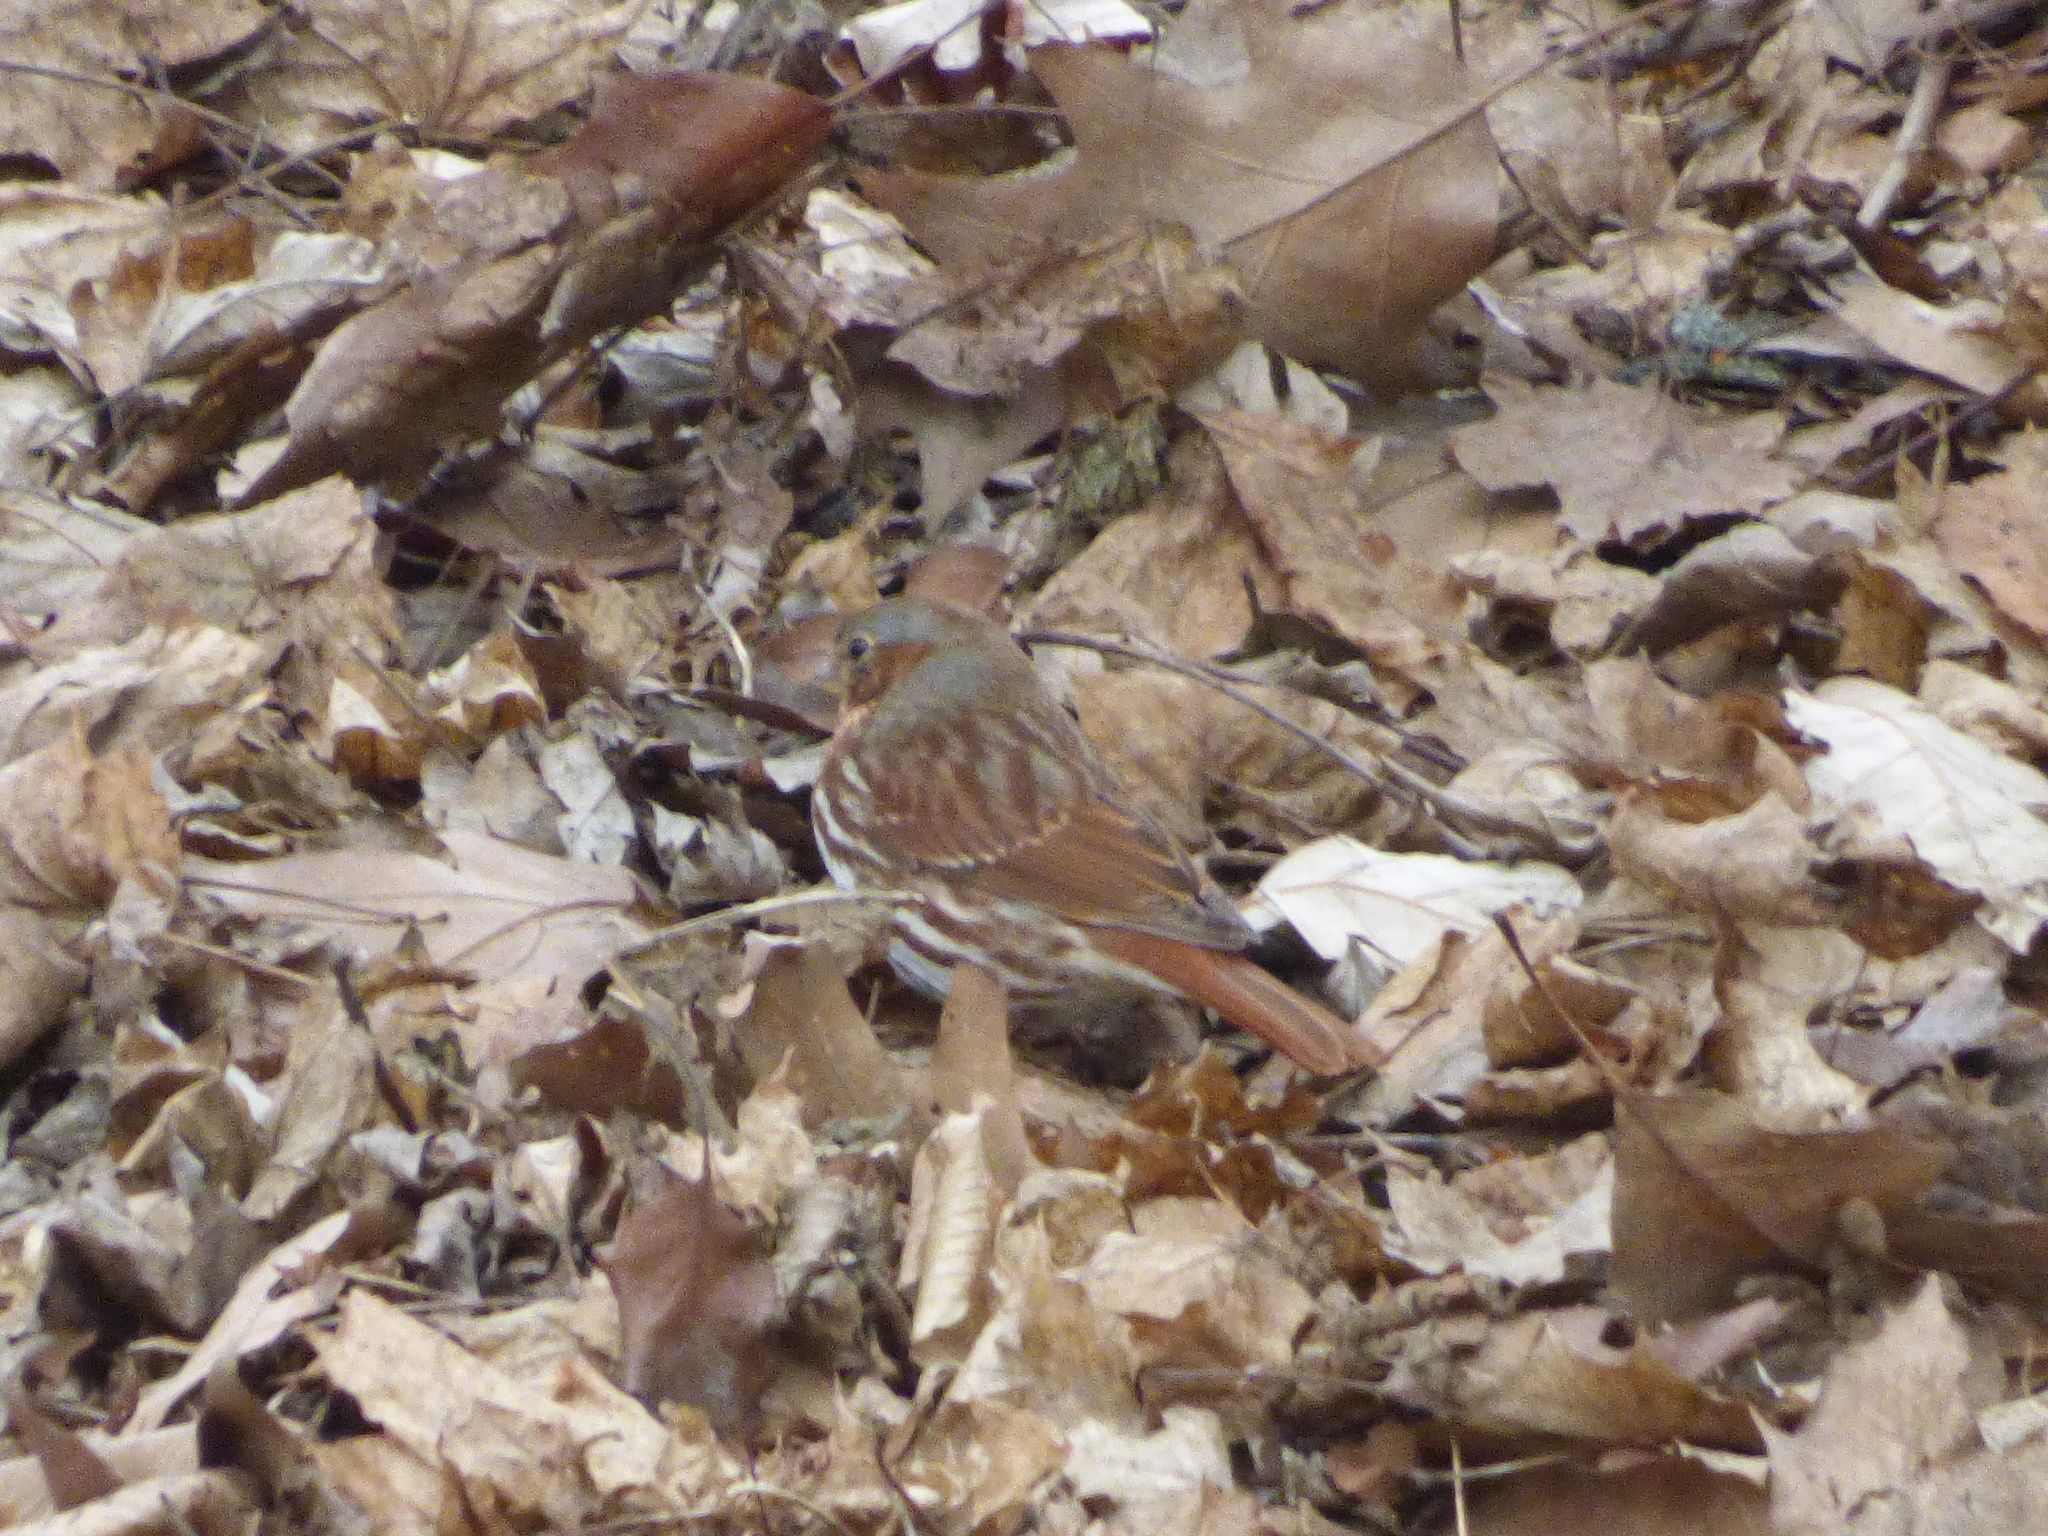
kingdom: Animalia
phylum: Chordata
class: Aves
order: Passeriformes
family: Passerellidae
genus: Passerella
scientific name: Passerella iliaca
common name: Fox sparrow
